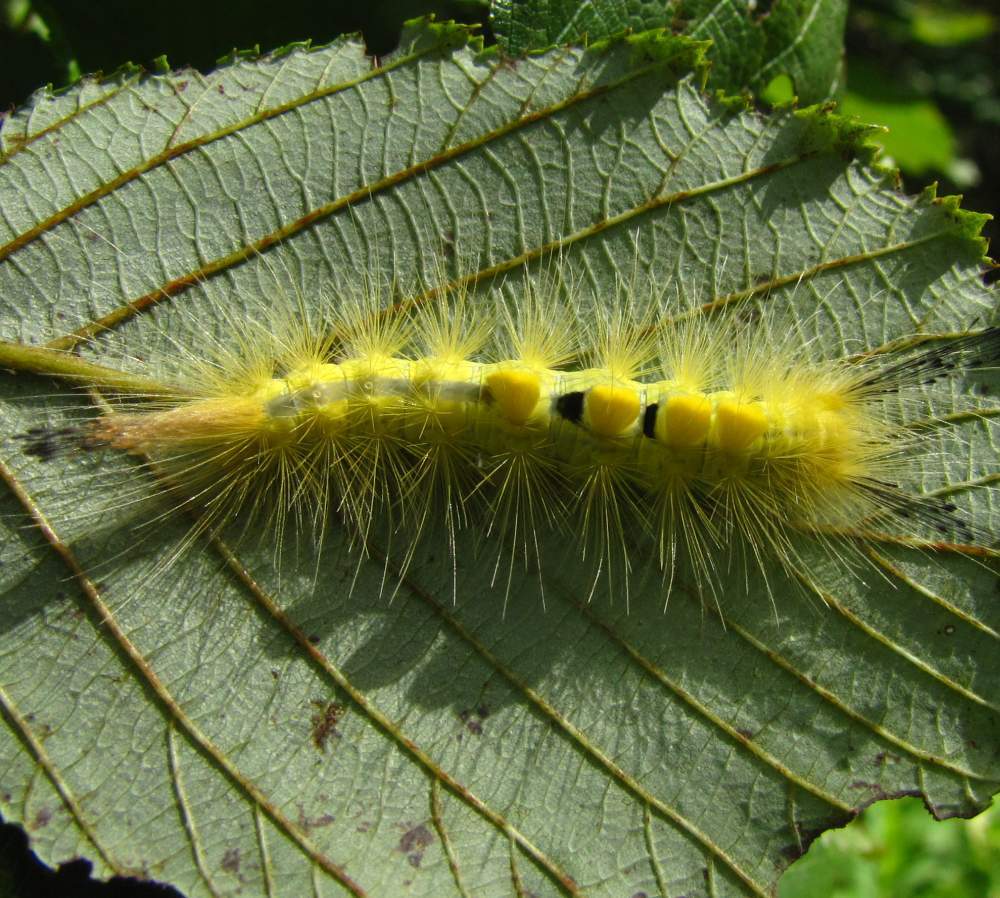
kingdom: Animalia
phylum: Arthropoda
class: Insecta
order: Lepidoptera
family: Erebidae
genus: Orgyia
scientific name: Orgyia definita
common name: Definite tussock moth
